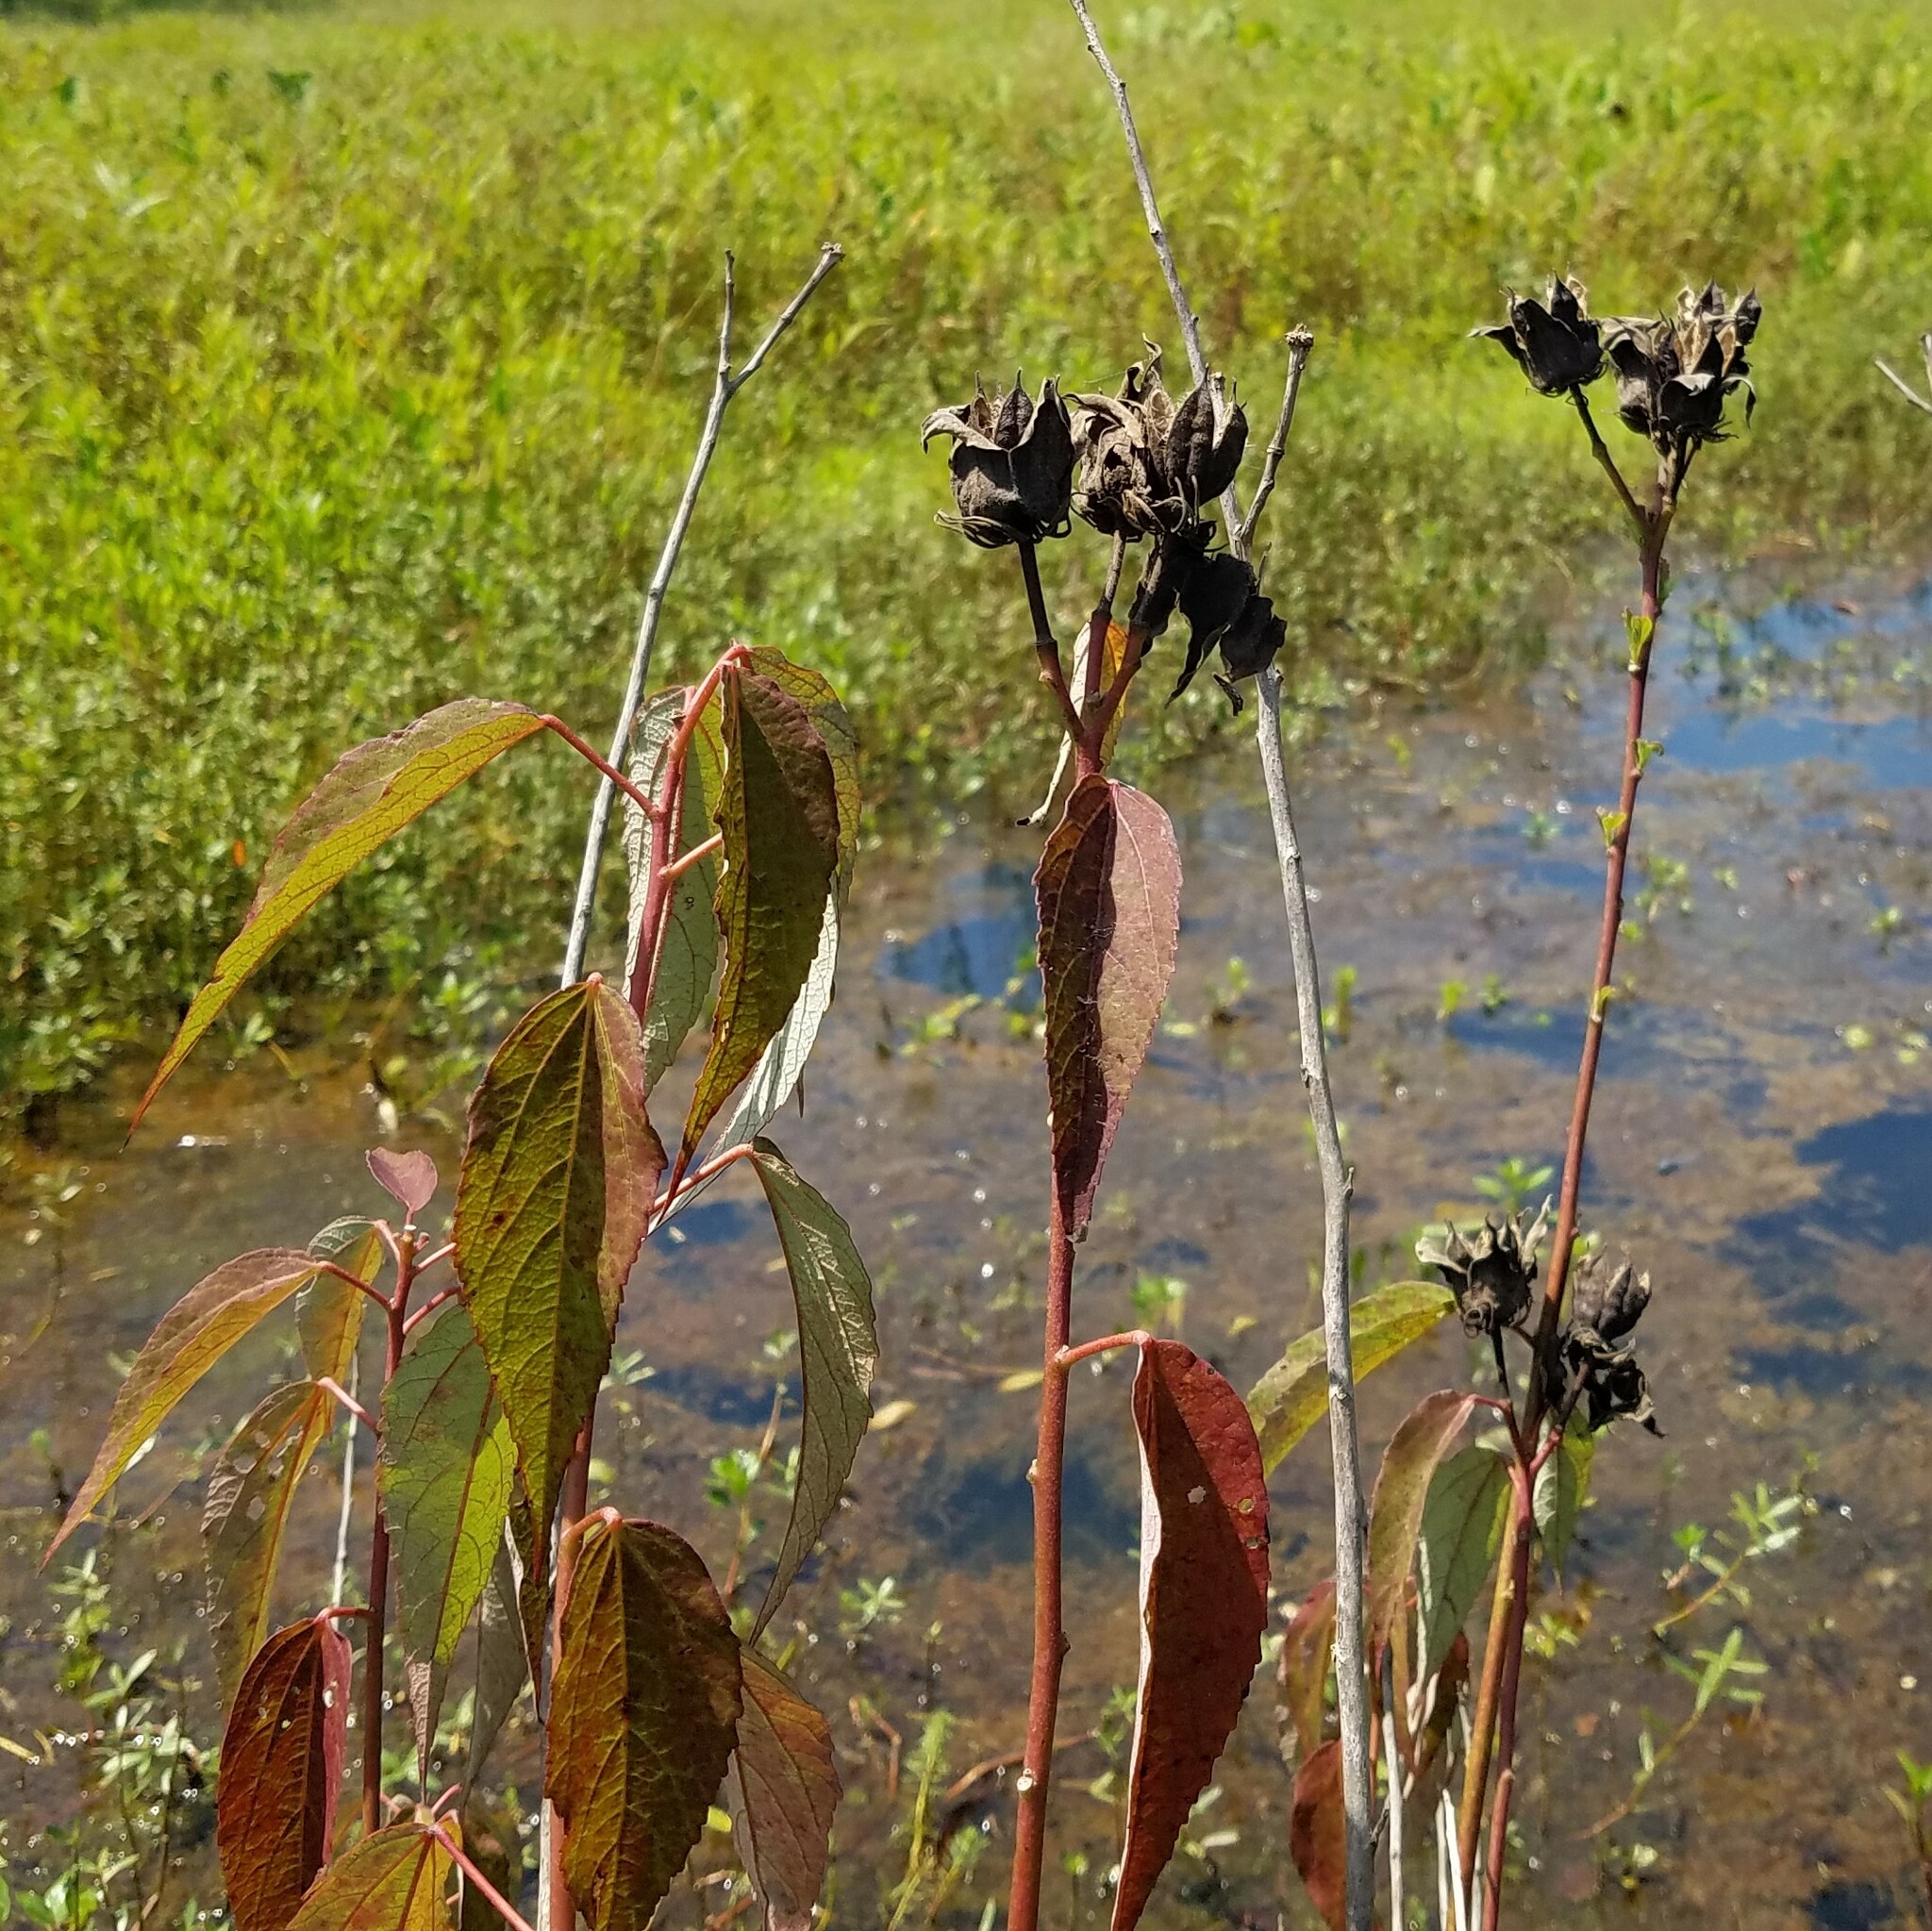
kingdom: Plantae
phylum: Tracheophyta
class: Magnoliopsida
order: Malvales
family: Malvaceae
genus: Hibiscus
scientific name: Hibiscus moscheutos
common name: Common rose-mallow
